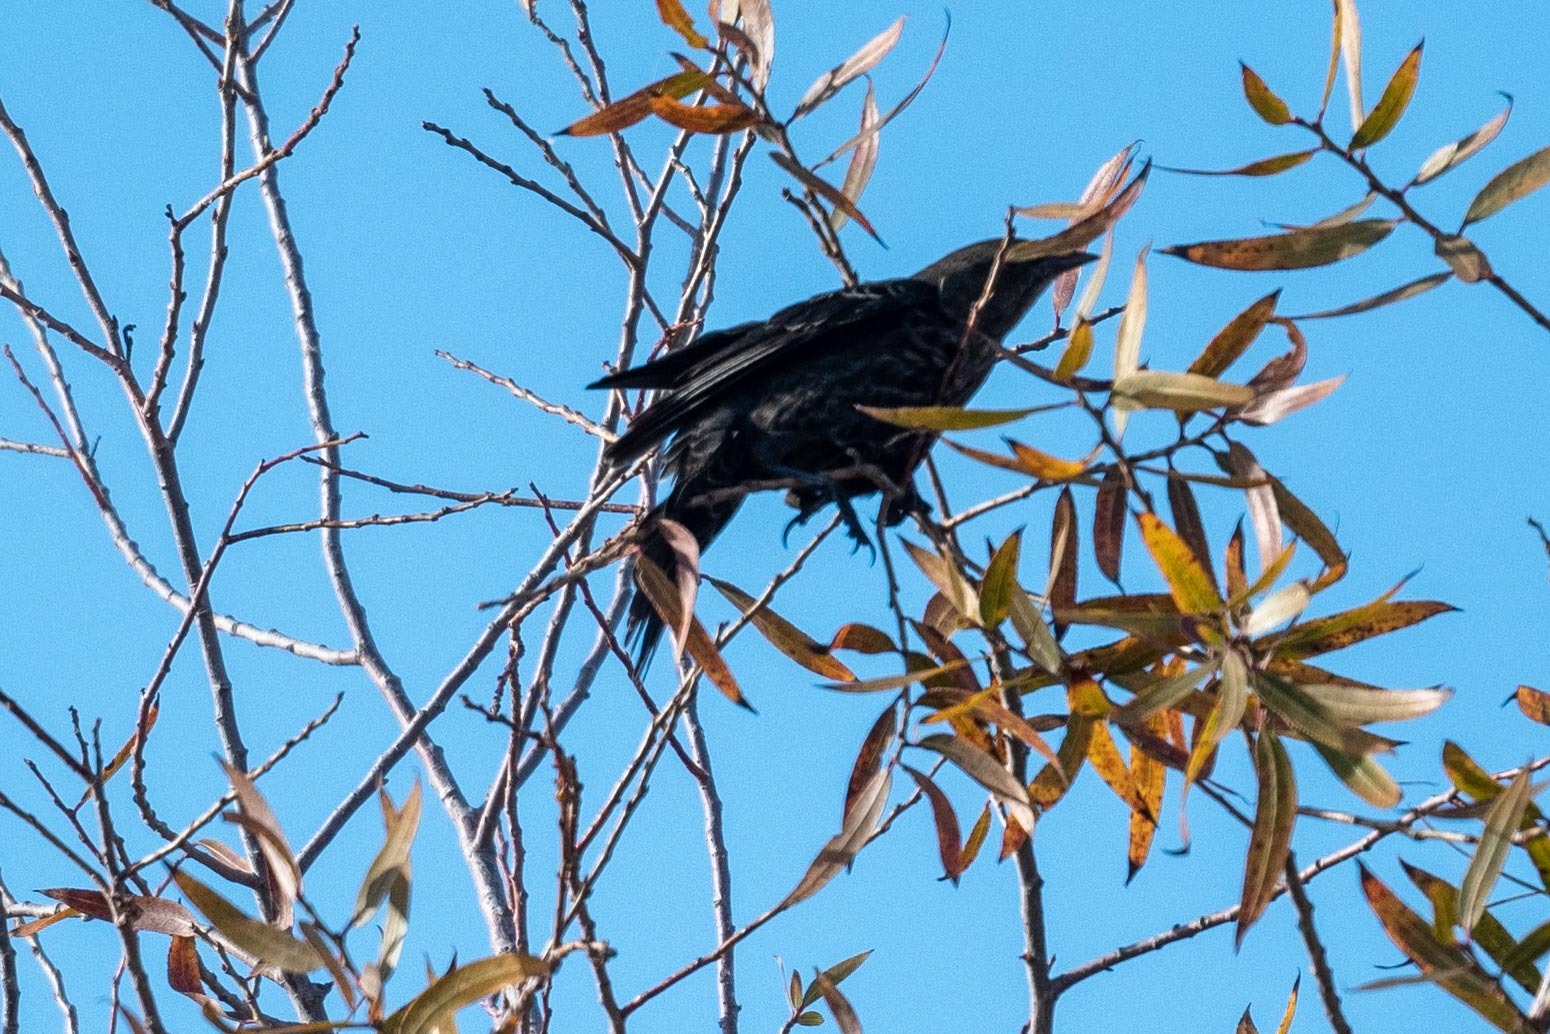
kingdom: Animalia
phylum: Chordata
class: Aves
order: Passeriformes
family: Sturnidae
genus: Sturnus
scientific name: Sturnus vulgaris
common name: Common starling
